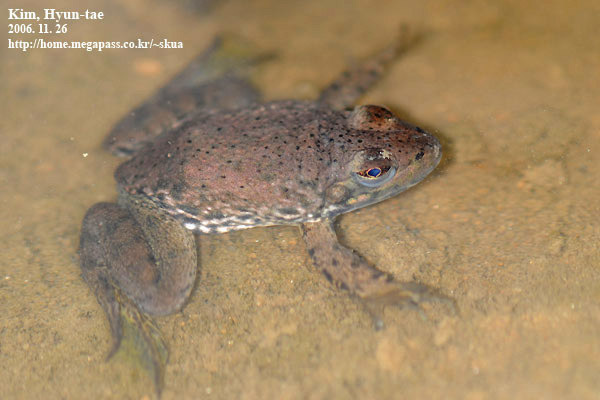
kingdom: Animalia
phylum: Chordata
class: Amphibia
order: Anura
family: Ranidae
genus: Lithobates
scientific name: Lithobates catesbeianus
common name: American bullfrog
